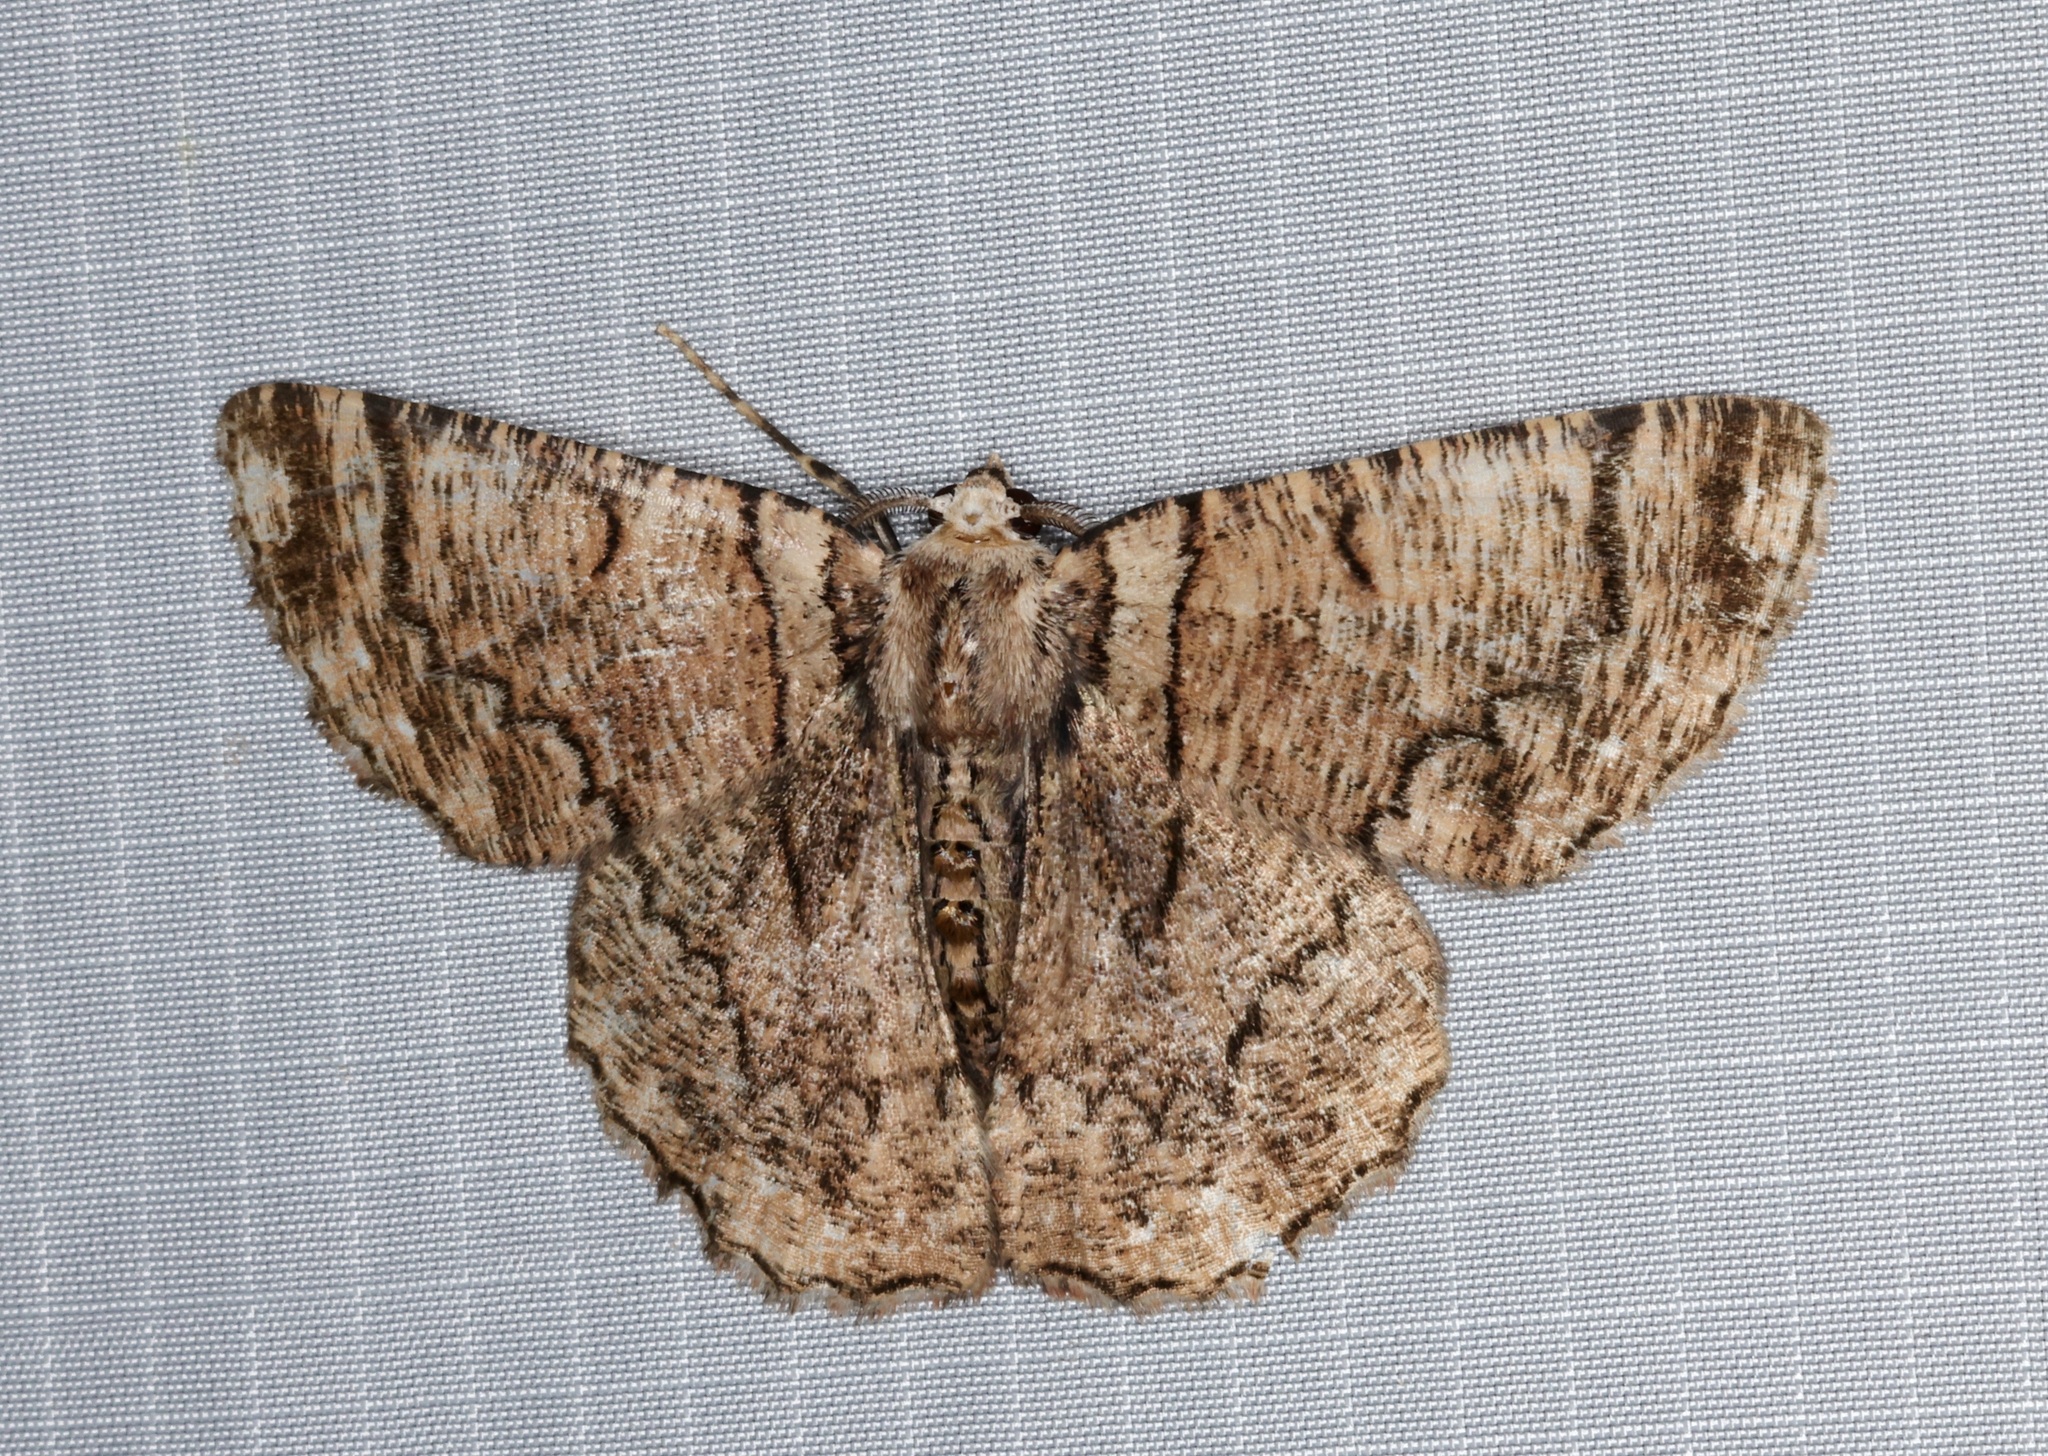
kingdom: Animalia
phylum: Arthropoda
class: Insecta
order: Lepidoptera
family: Geometridae
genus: Lophophelma
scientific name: Lophophelma calaurops
